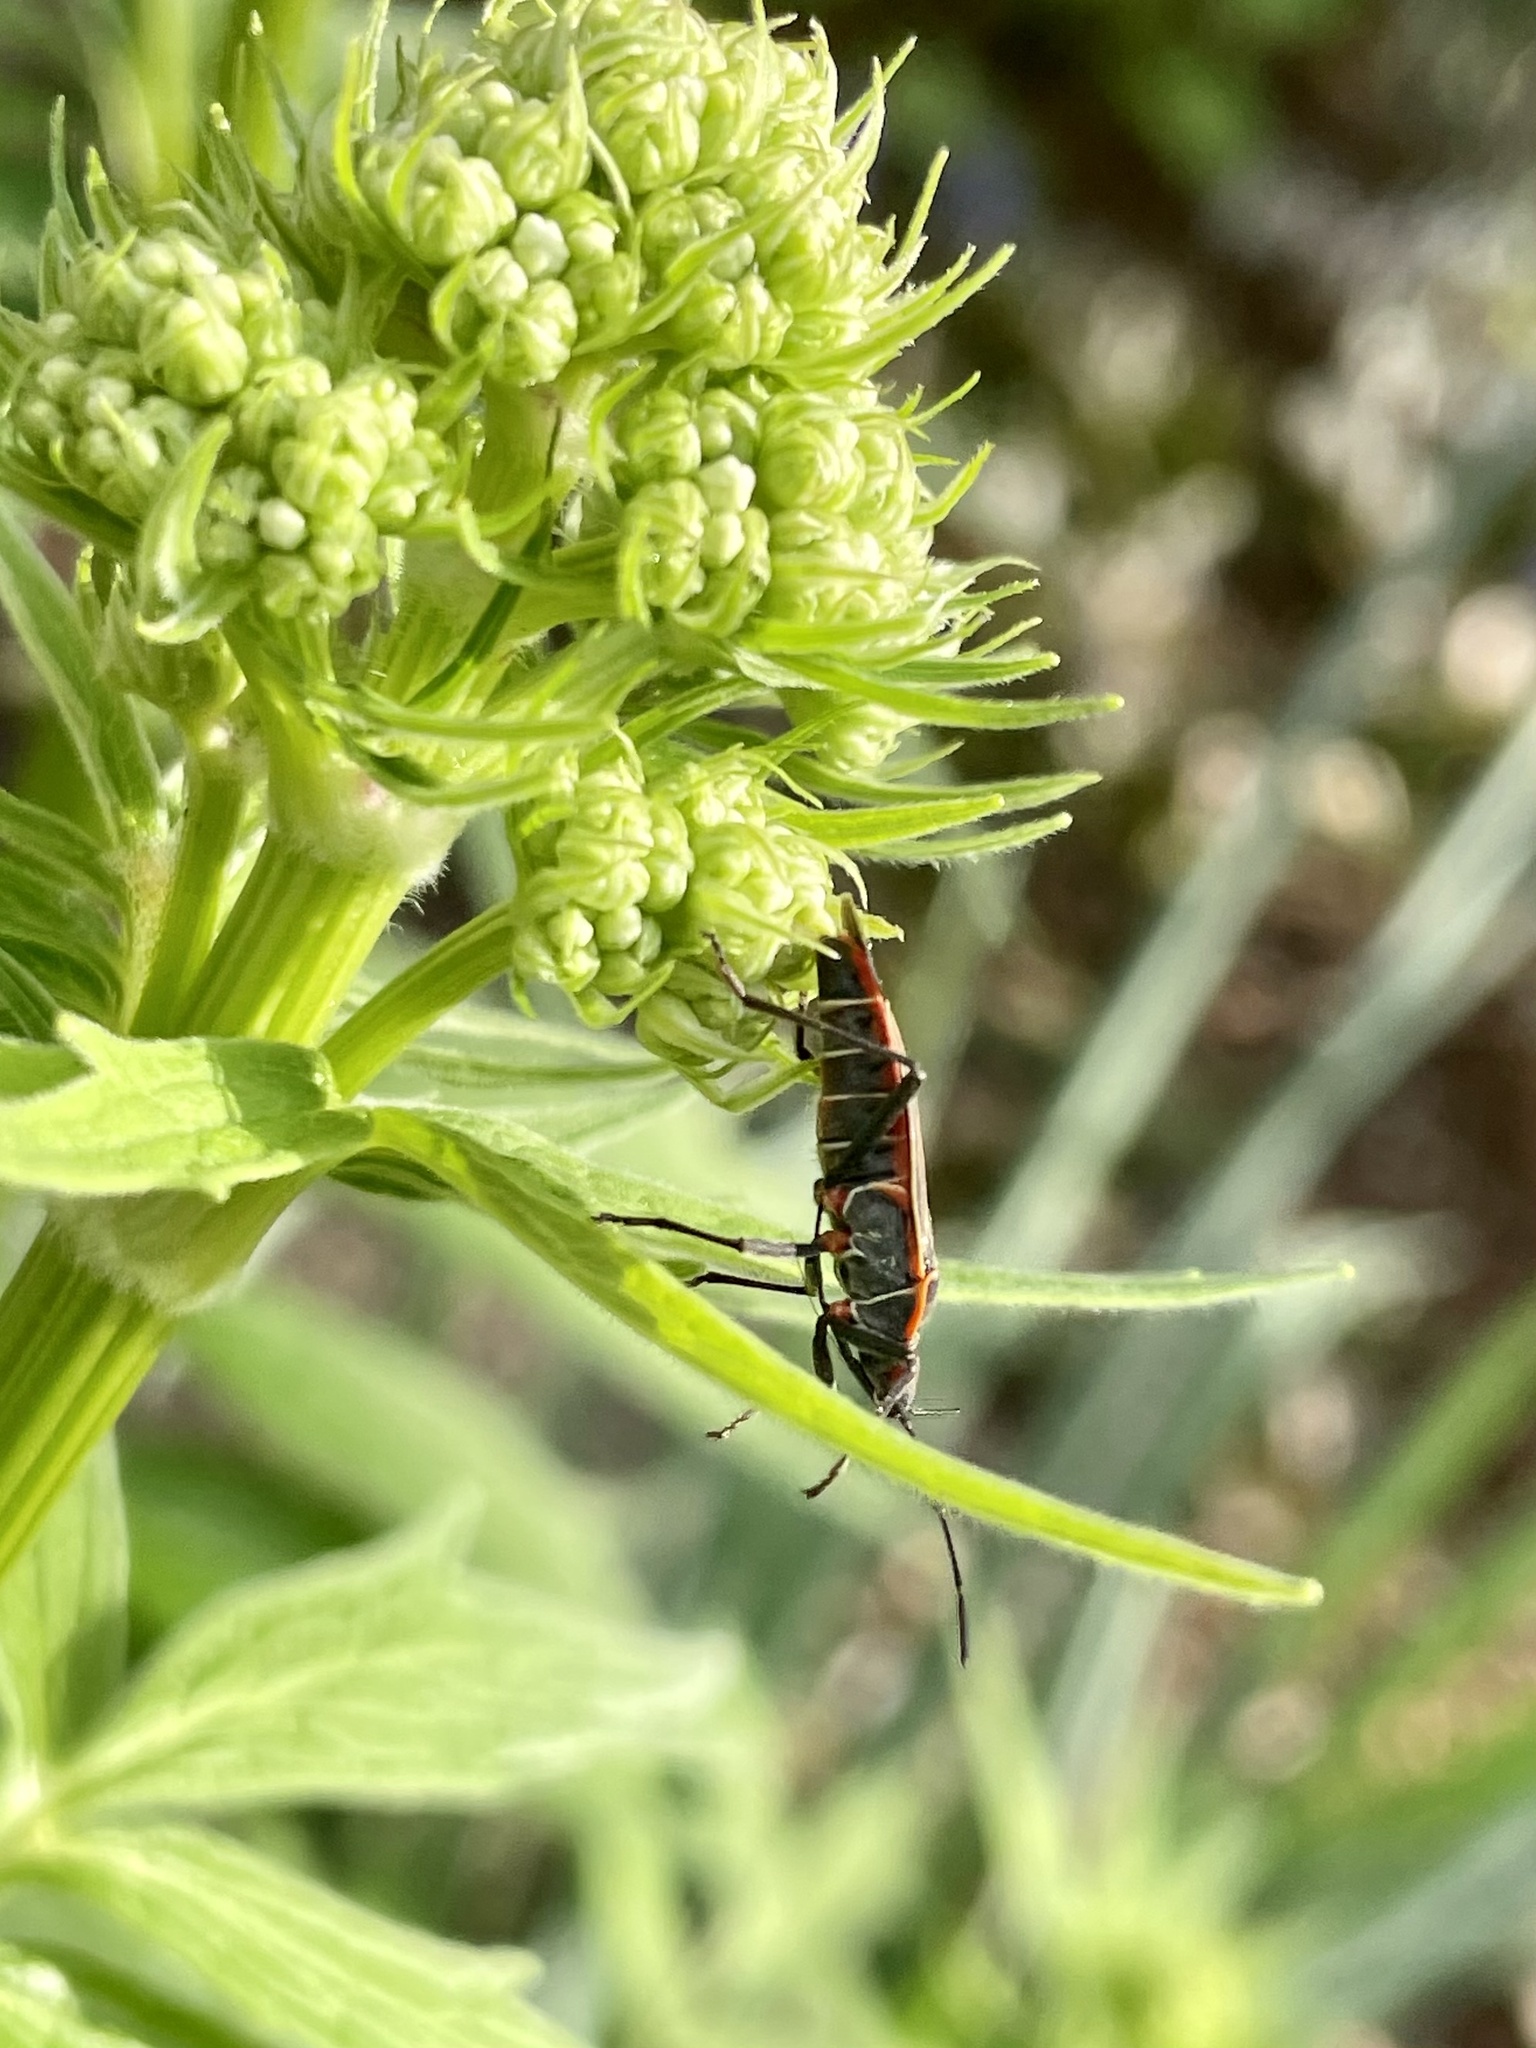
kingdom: Animalia
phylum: Arthropoda
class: Insecta
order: Hemiptera
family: Rhopalidae
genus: Boisea
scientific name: Boisea rubrolineata
